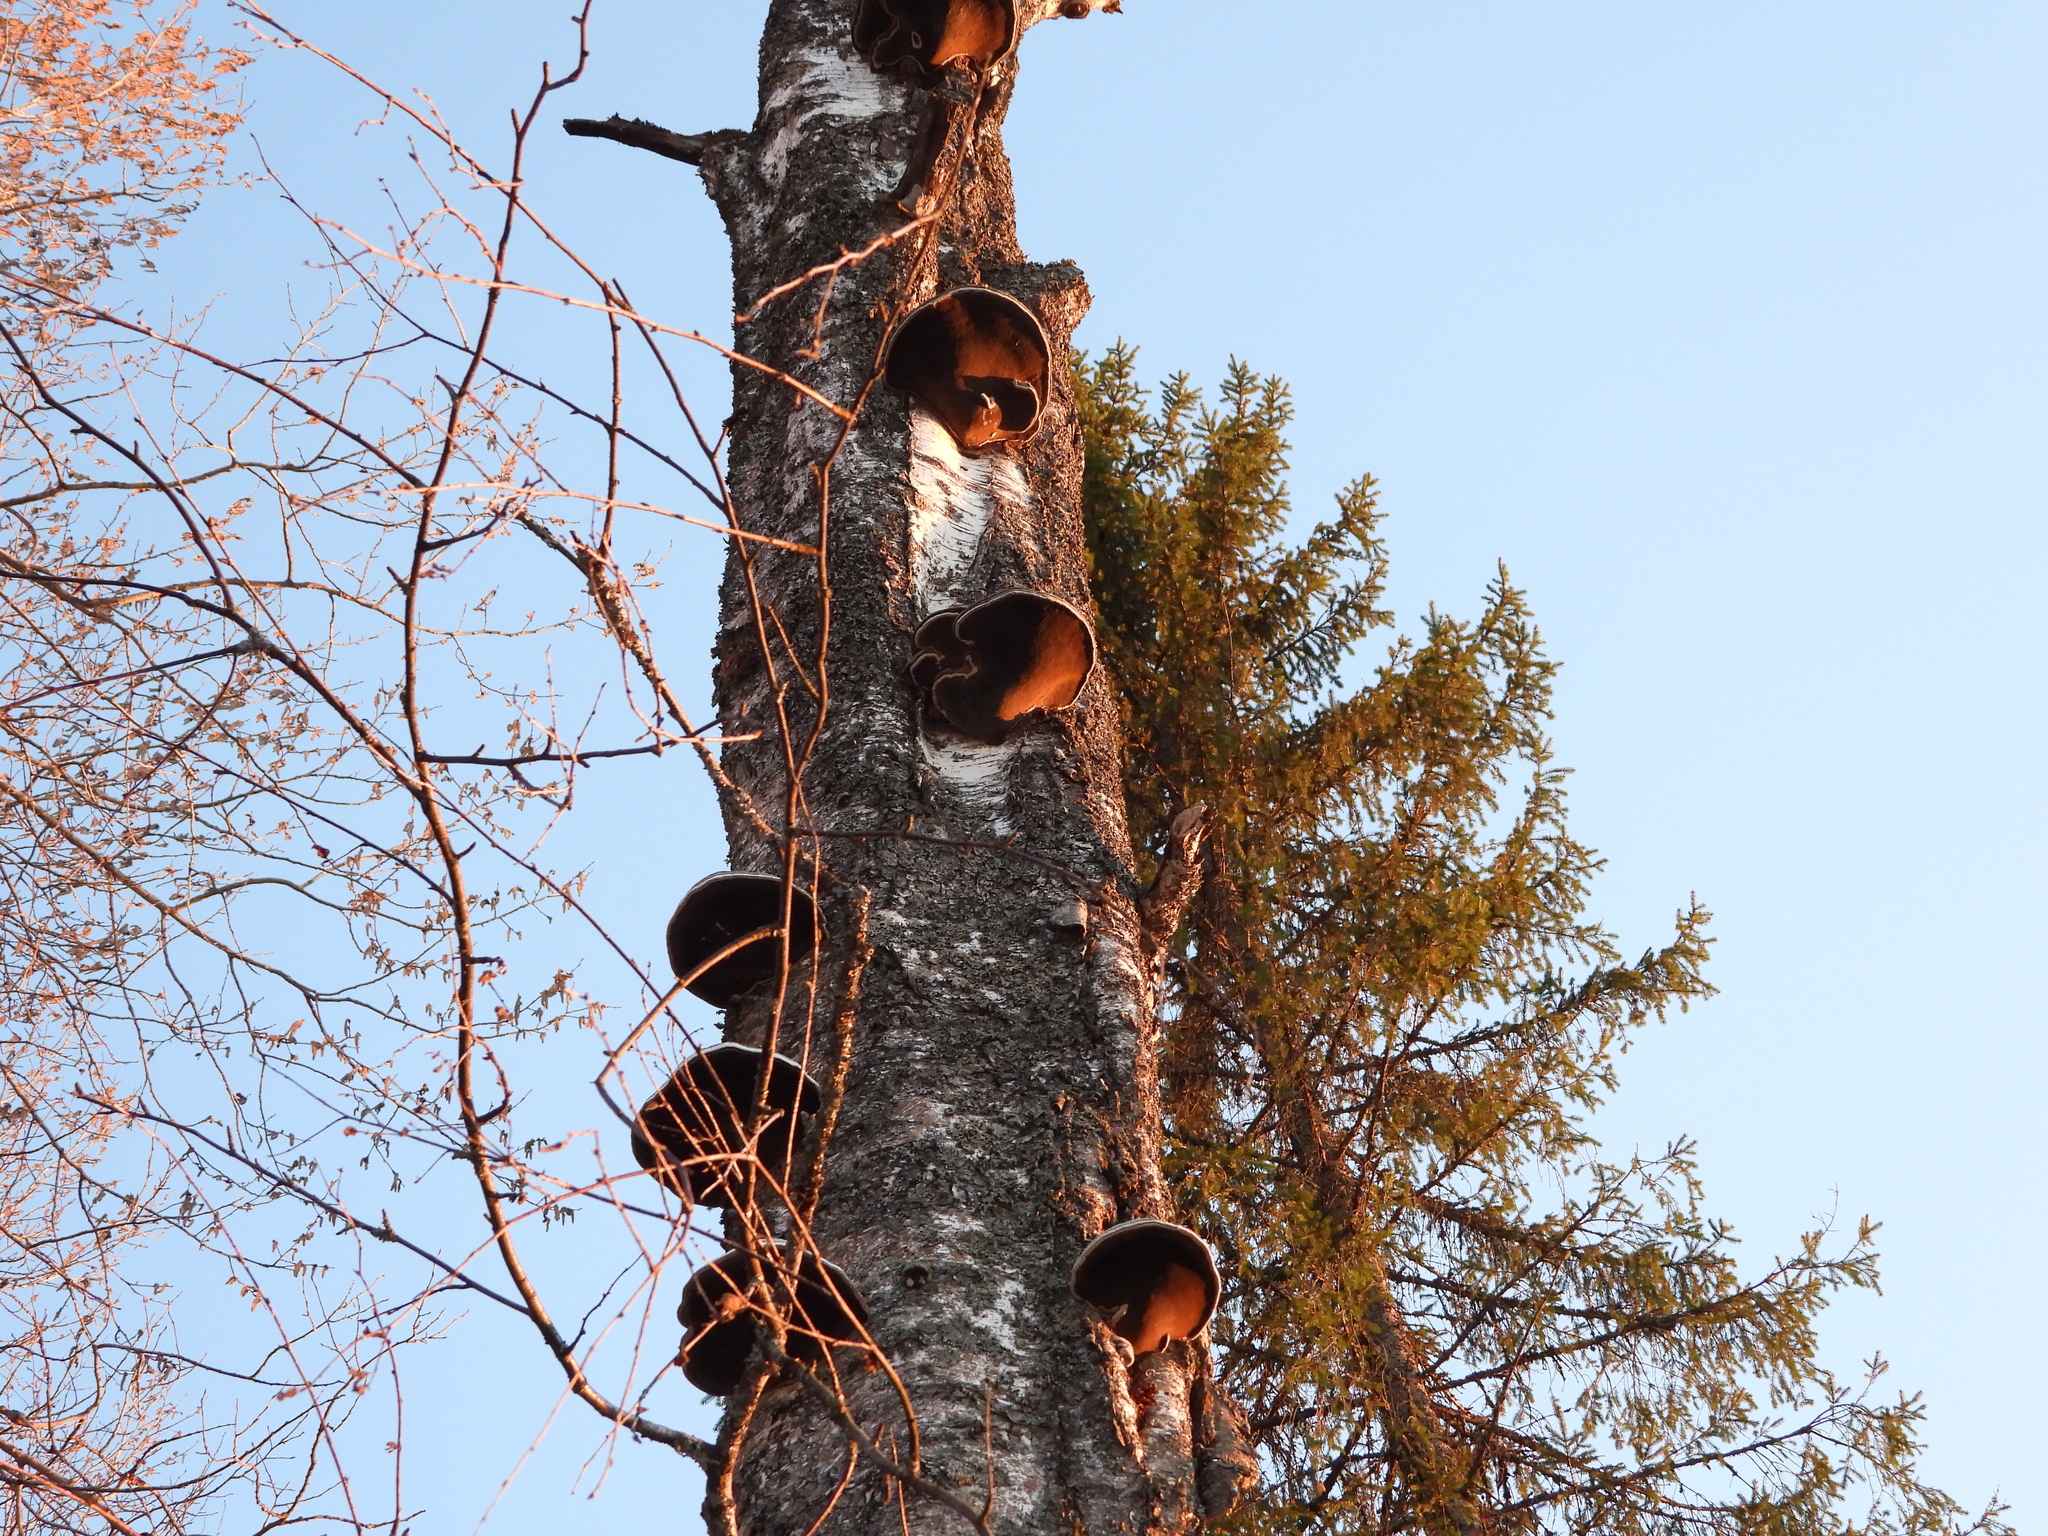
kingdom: Fungi
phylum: Basidiomycota
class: Agaricomycetes
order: Polyporales
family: Polyporaceae
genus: Fomes
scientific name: Fomes fomentarius
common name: Hoof fungus
